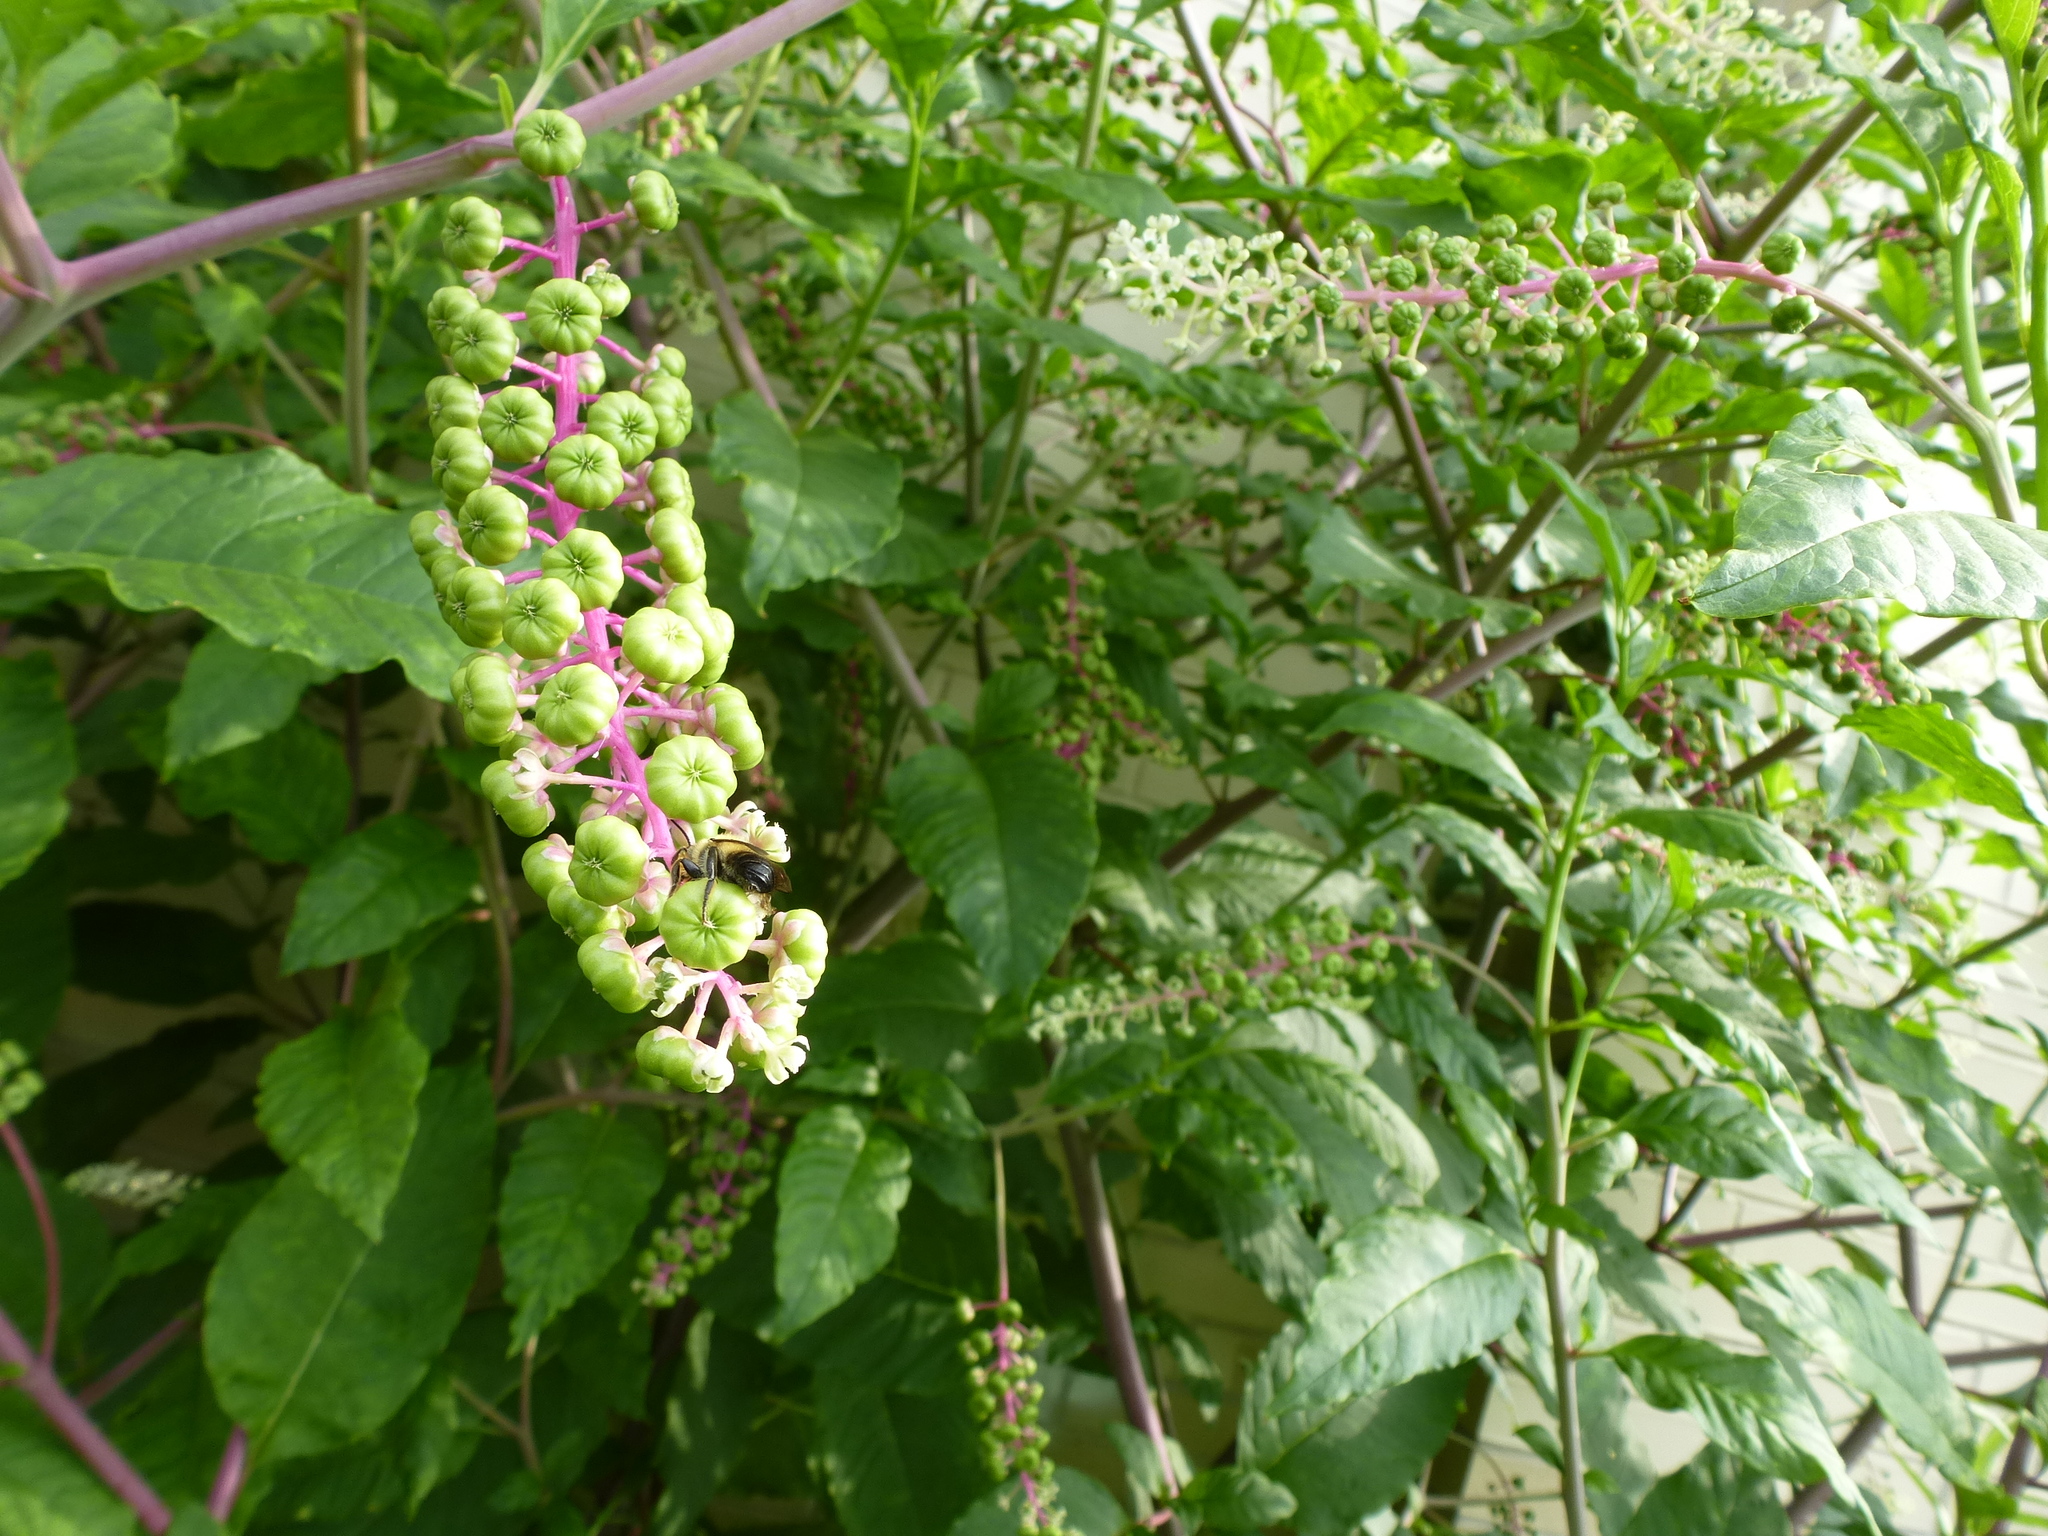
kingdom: Animalia
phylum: Arthropoda
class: Insecta
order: Hymenoptera
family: Megachilidae
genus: Megachile
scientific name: Megachile mucida
